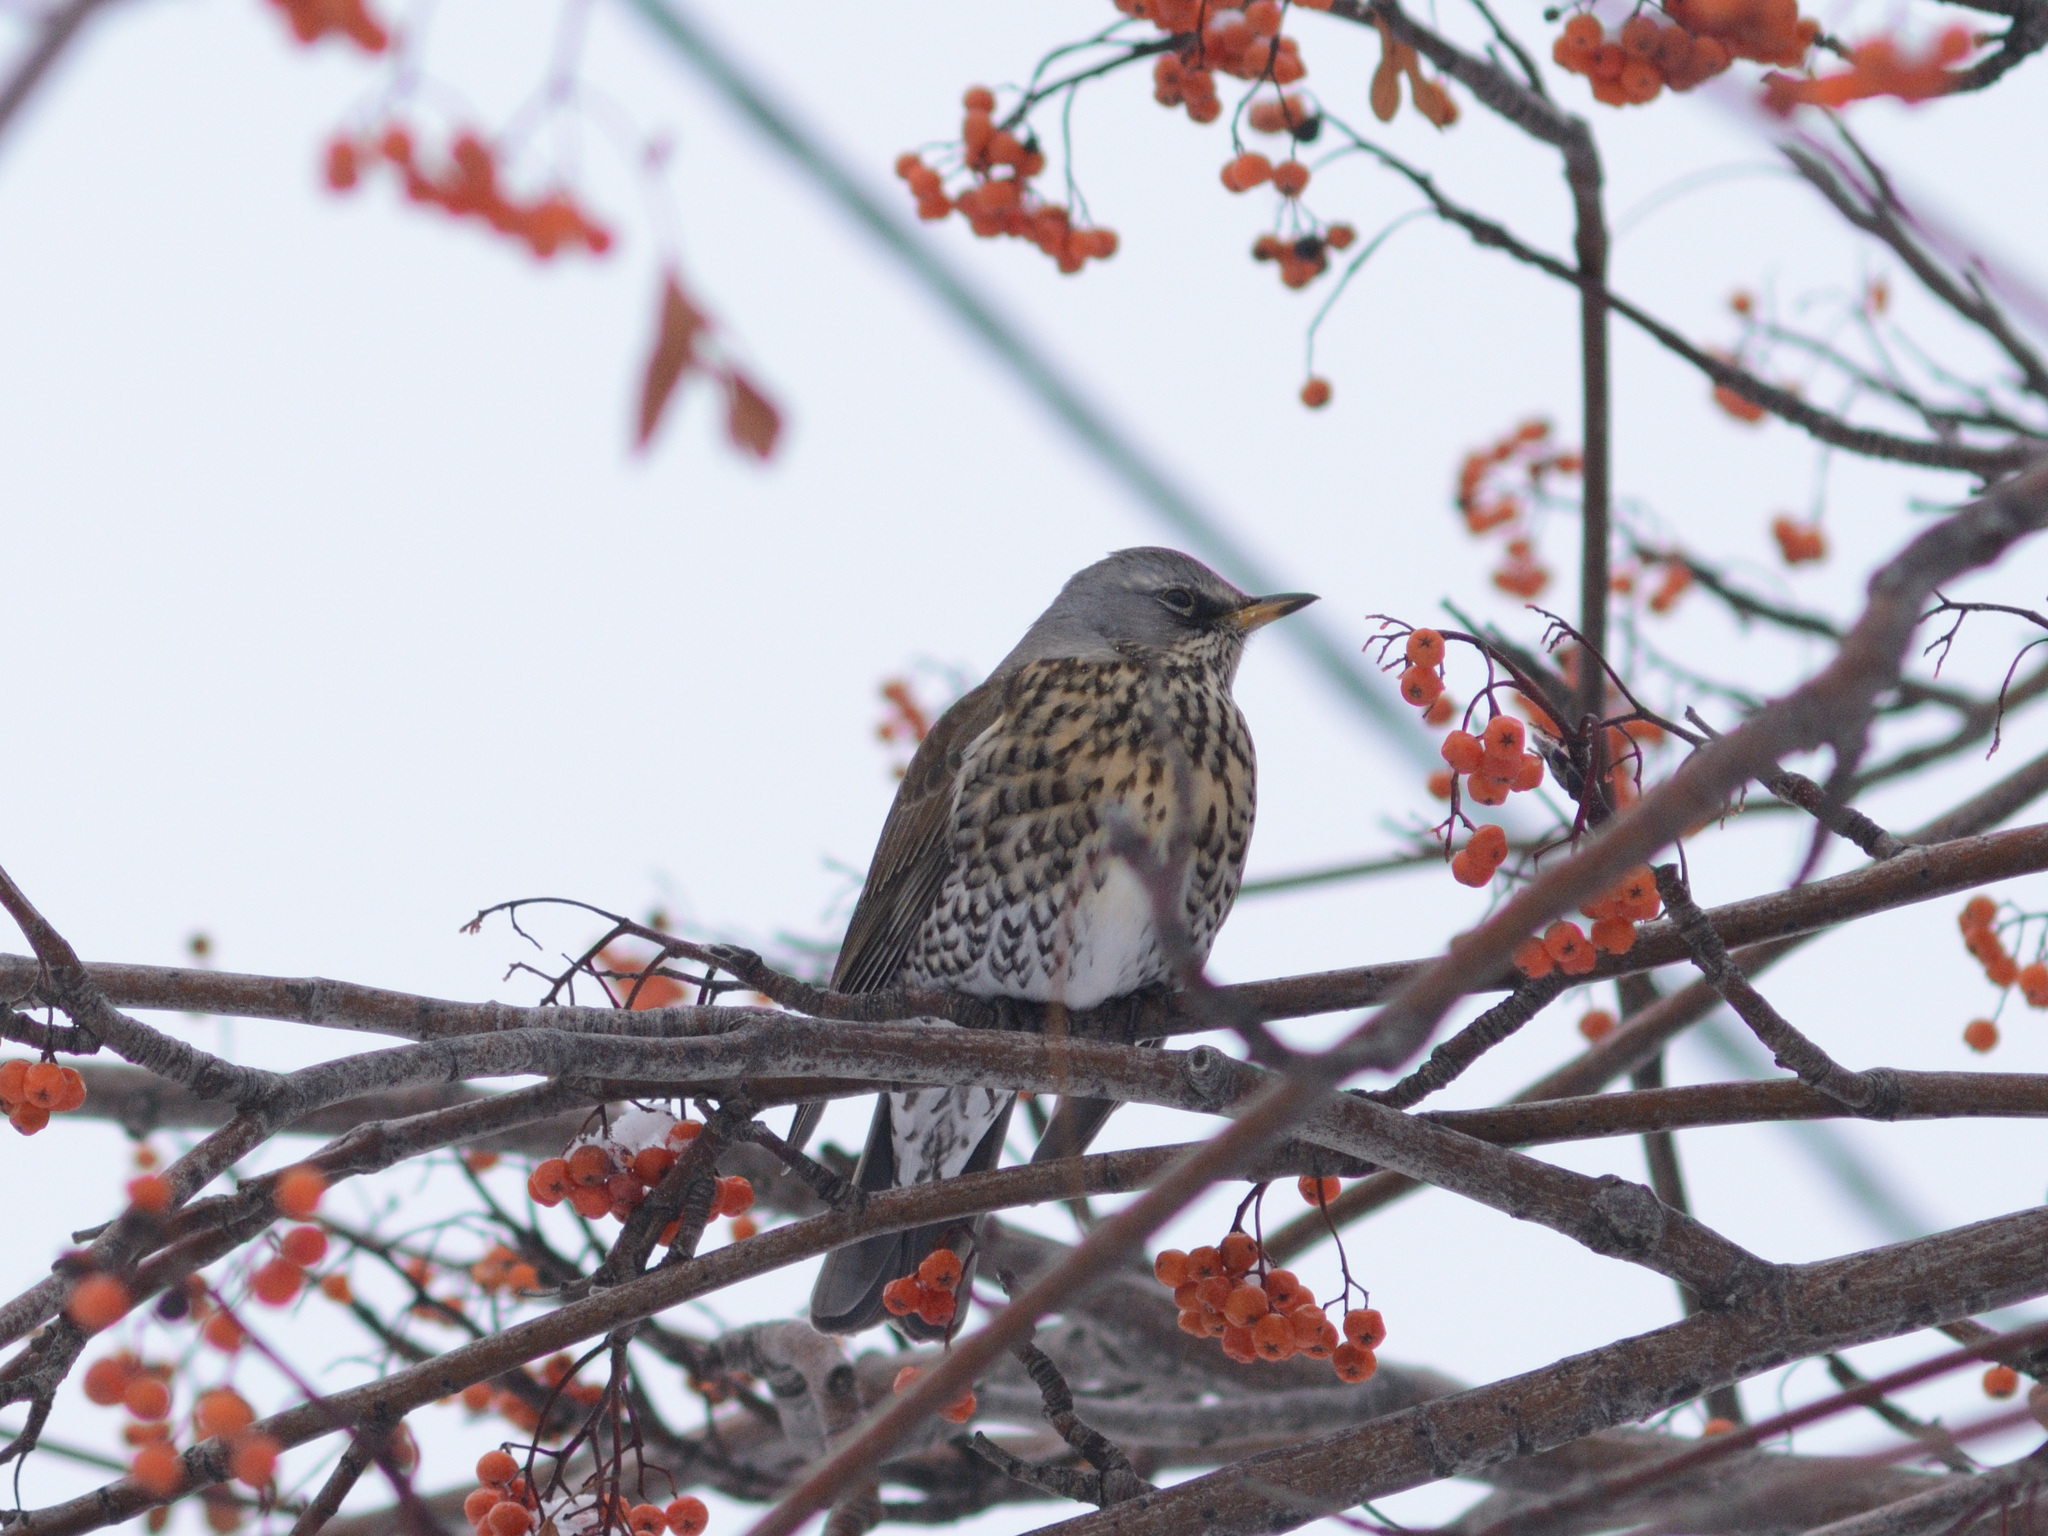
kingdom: Animalia
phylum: Chordata
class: Aves
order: Passeriformes
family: Turdidae
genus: Turdus
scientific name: Turdus pilaris
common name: Fieldfare
